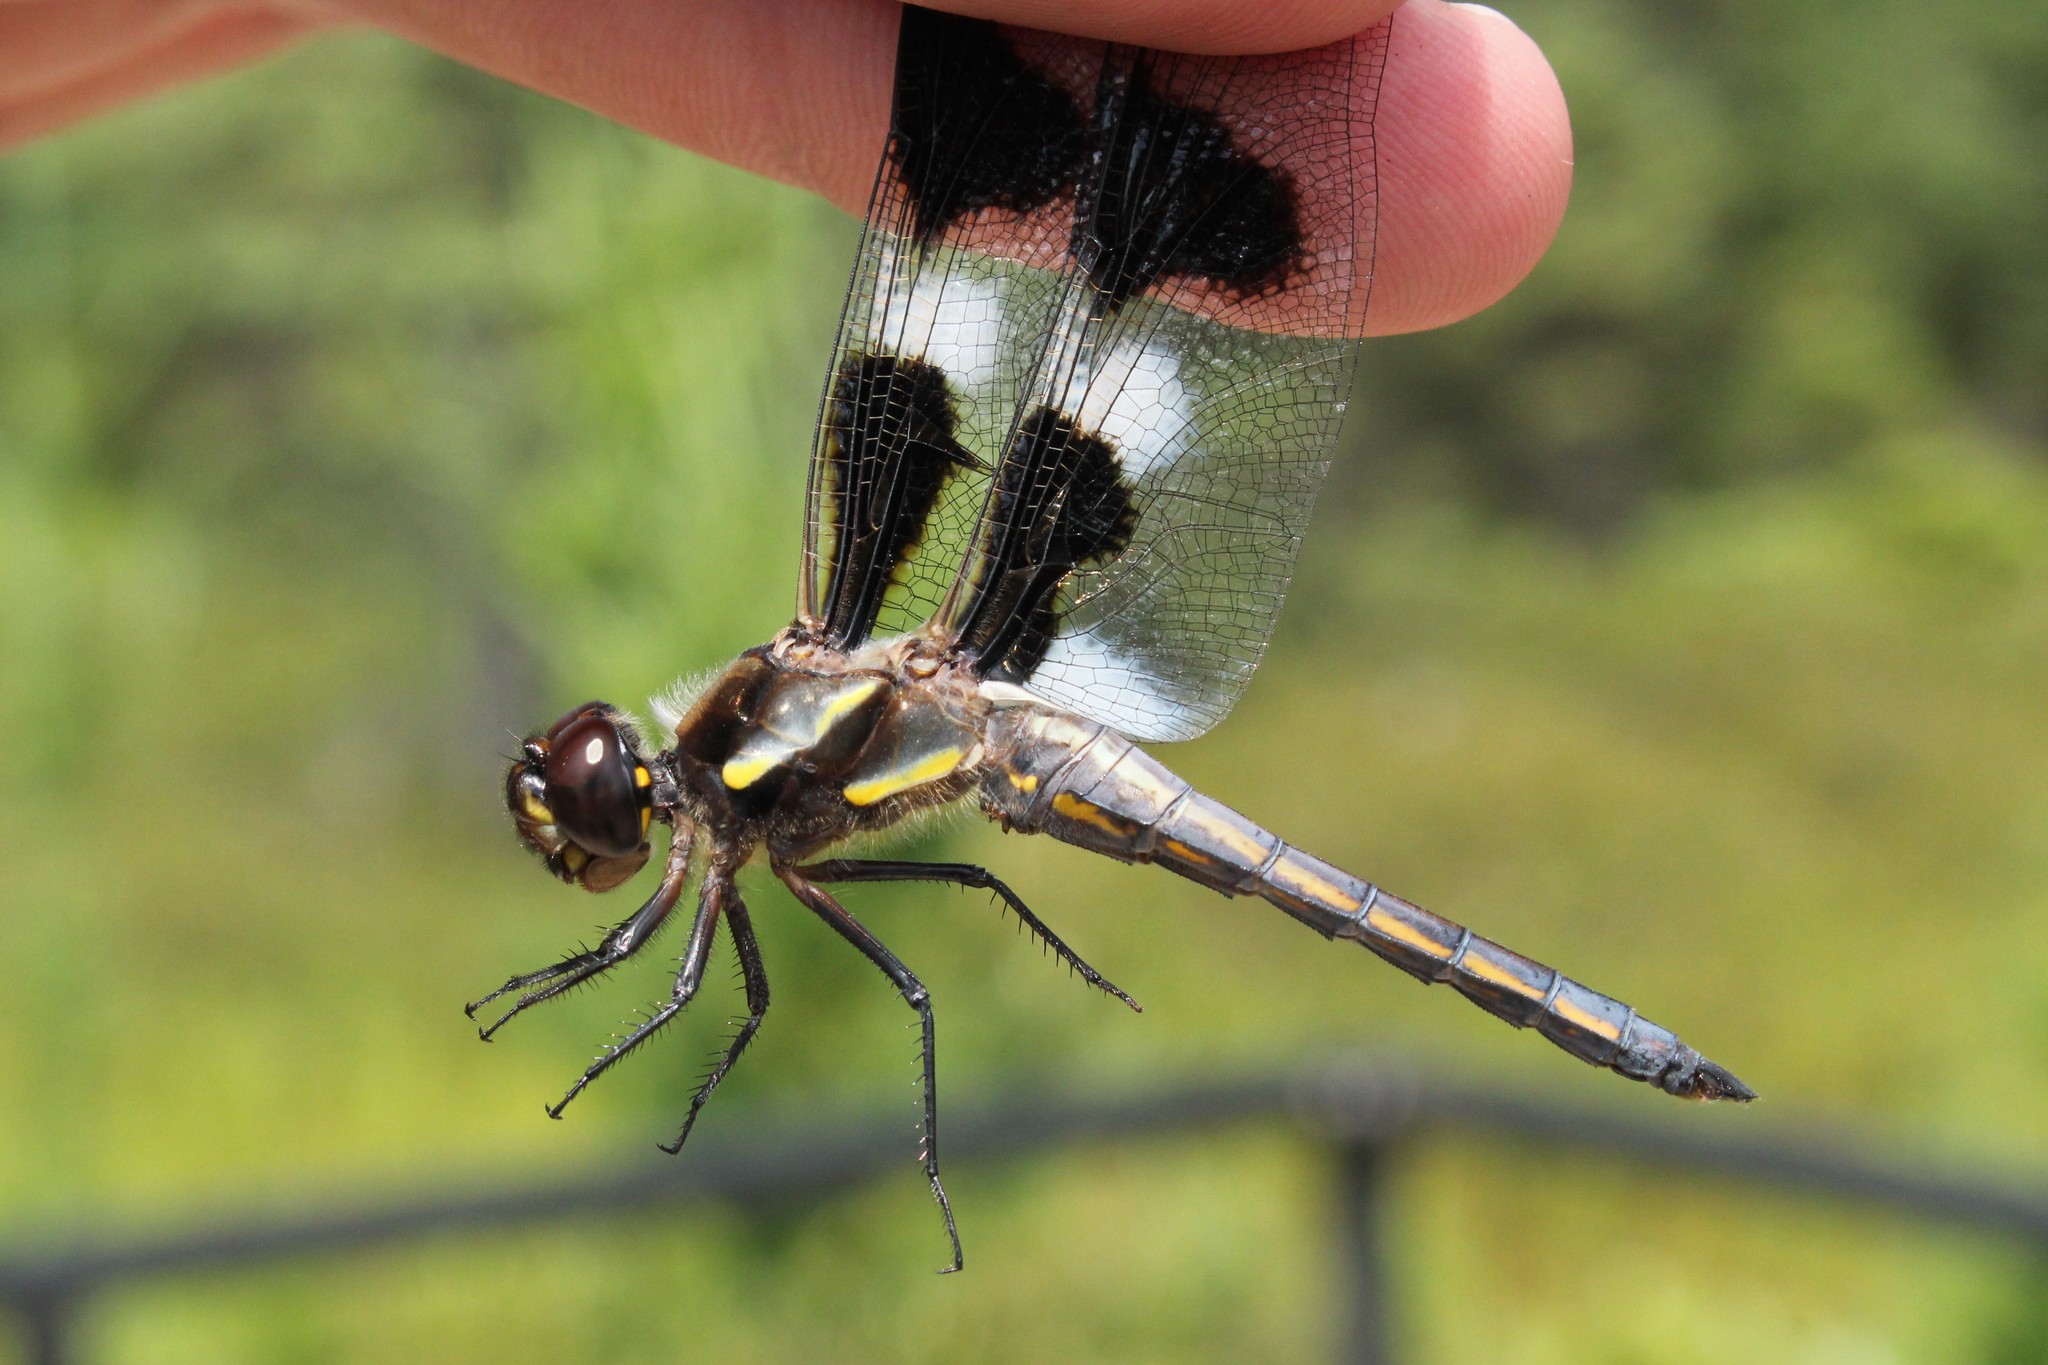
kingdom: Animalia
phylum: Arthropoda
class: Insecta
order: Odonata
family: Libellulidae
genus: Libellula
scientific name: Libellula pulchella
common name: Twelve-spotted skimmer
